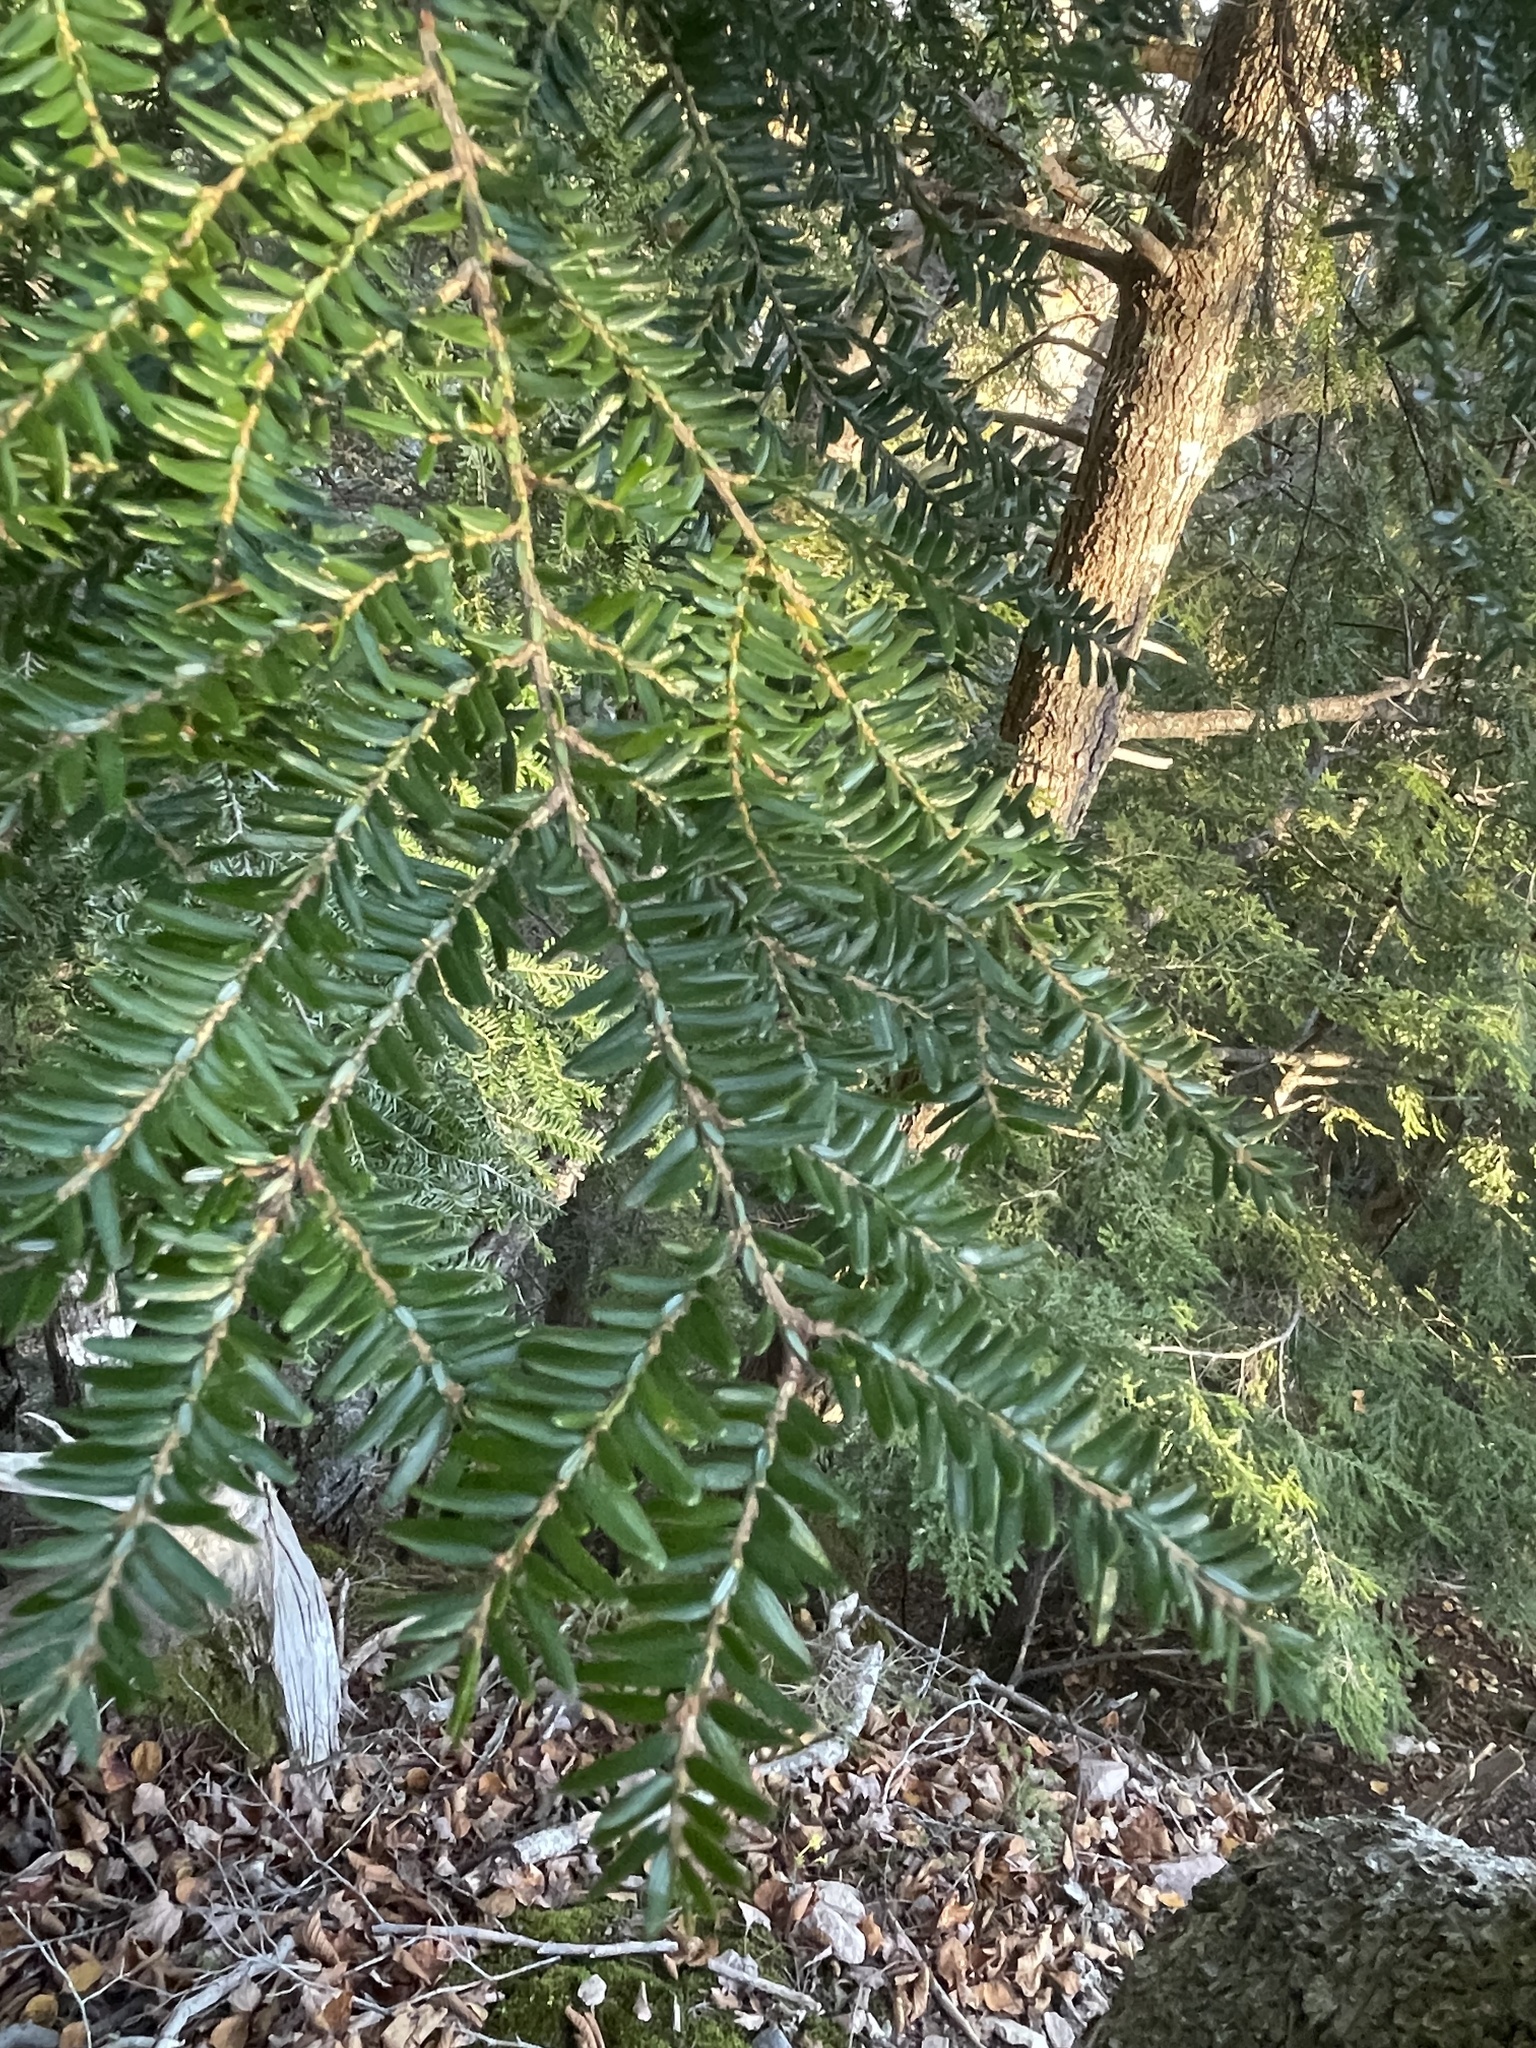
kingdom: Plantae
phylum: Tracheophyta
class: Pinopsida
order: Pinales
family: Pinaceae
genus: Tsuga
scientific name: Tsuga canadensis
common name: Eastern hemlock
